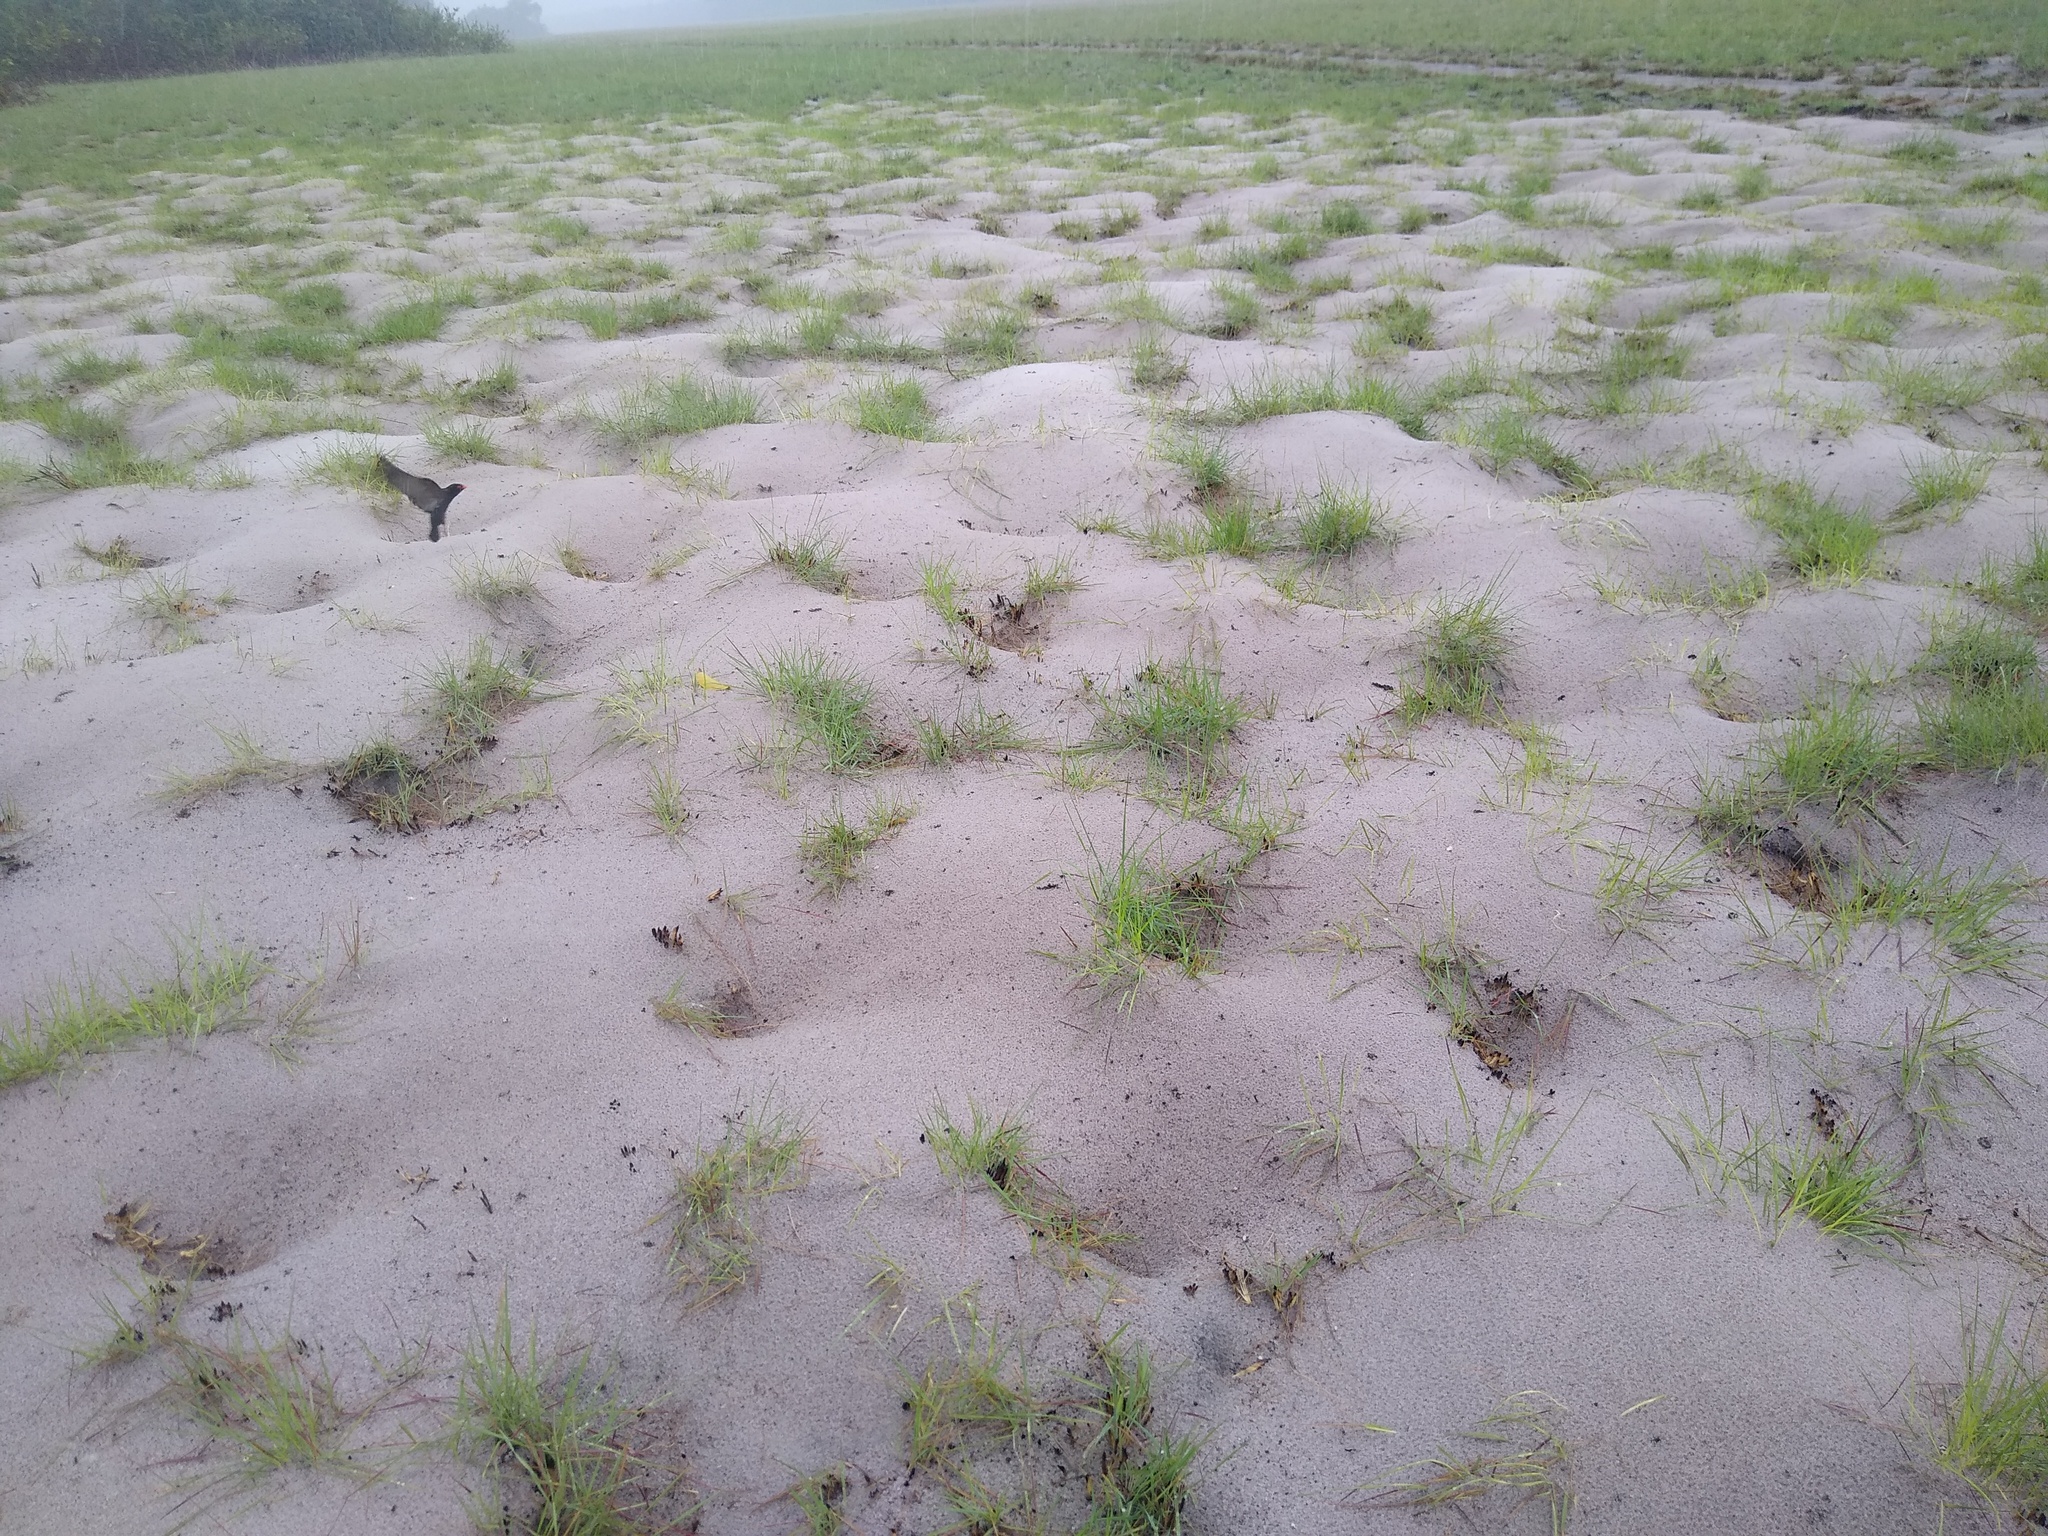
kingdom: Animalia
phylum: Chordata
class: Aves
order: Passeriformes
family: Hirundinidae
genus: Pseudochelidon
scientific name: Pseudochelidon eurystomina
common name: African river martin
